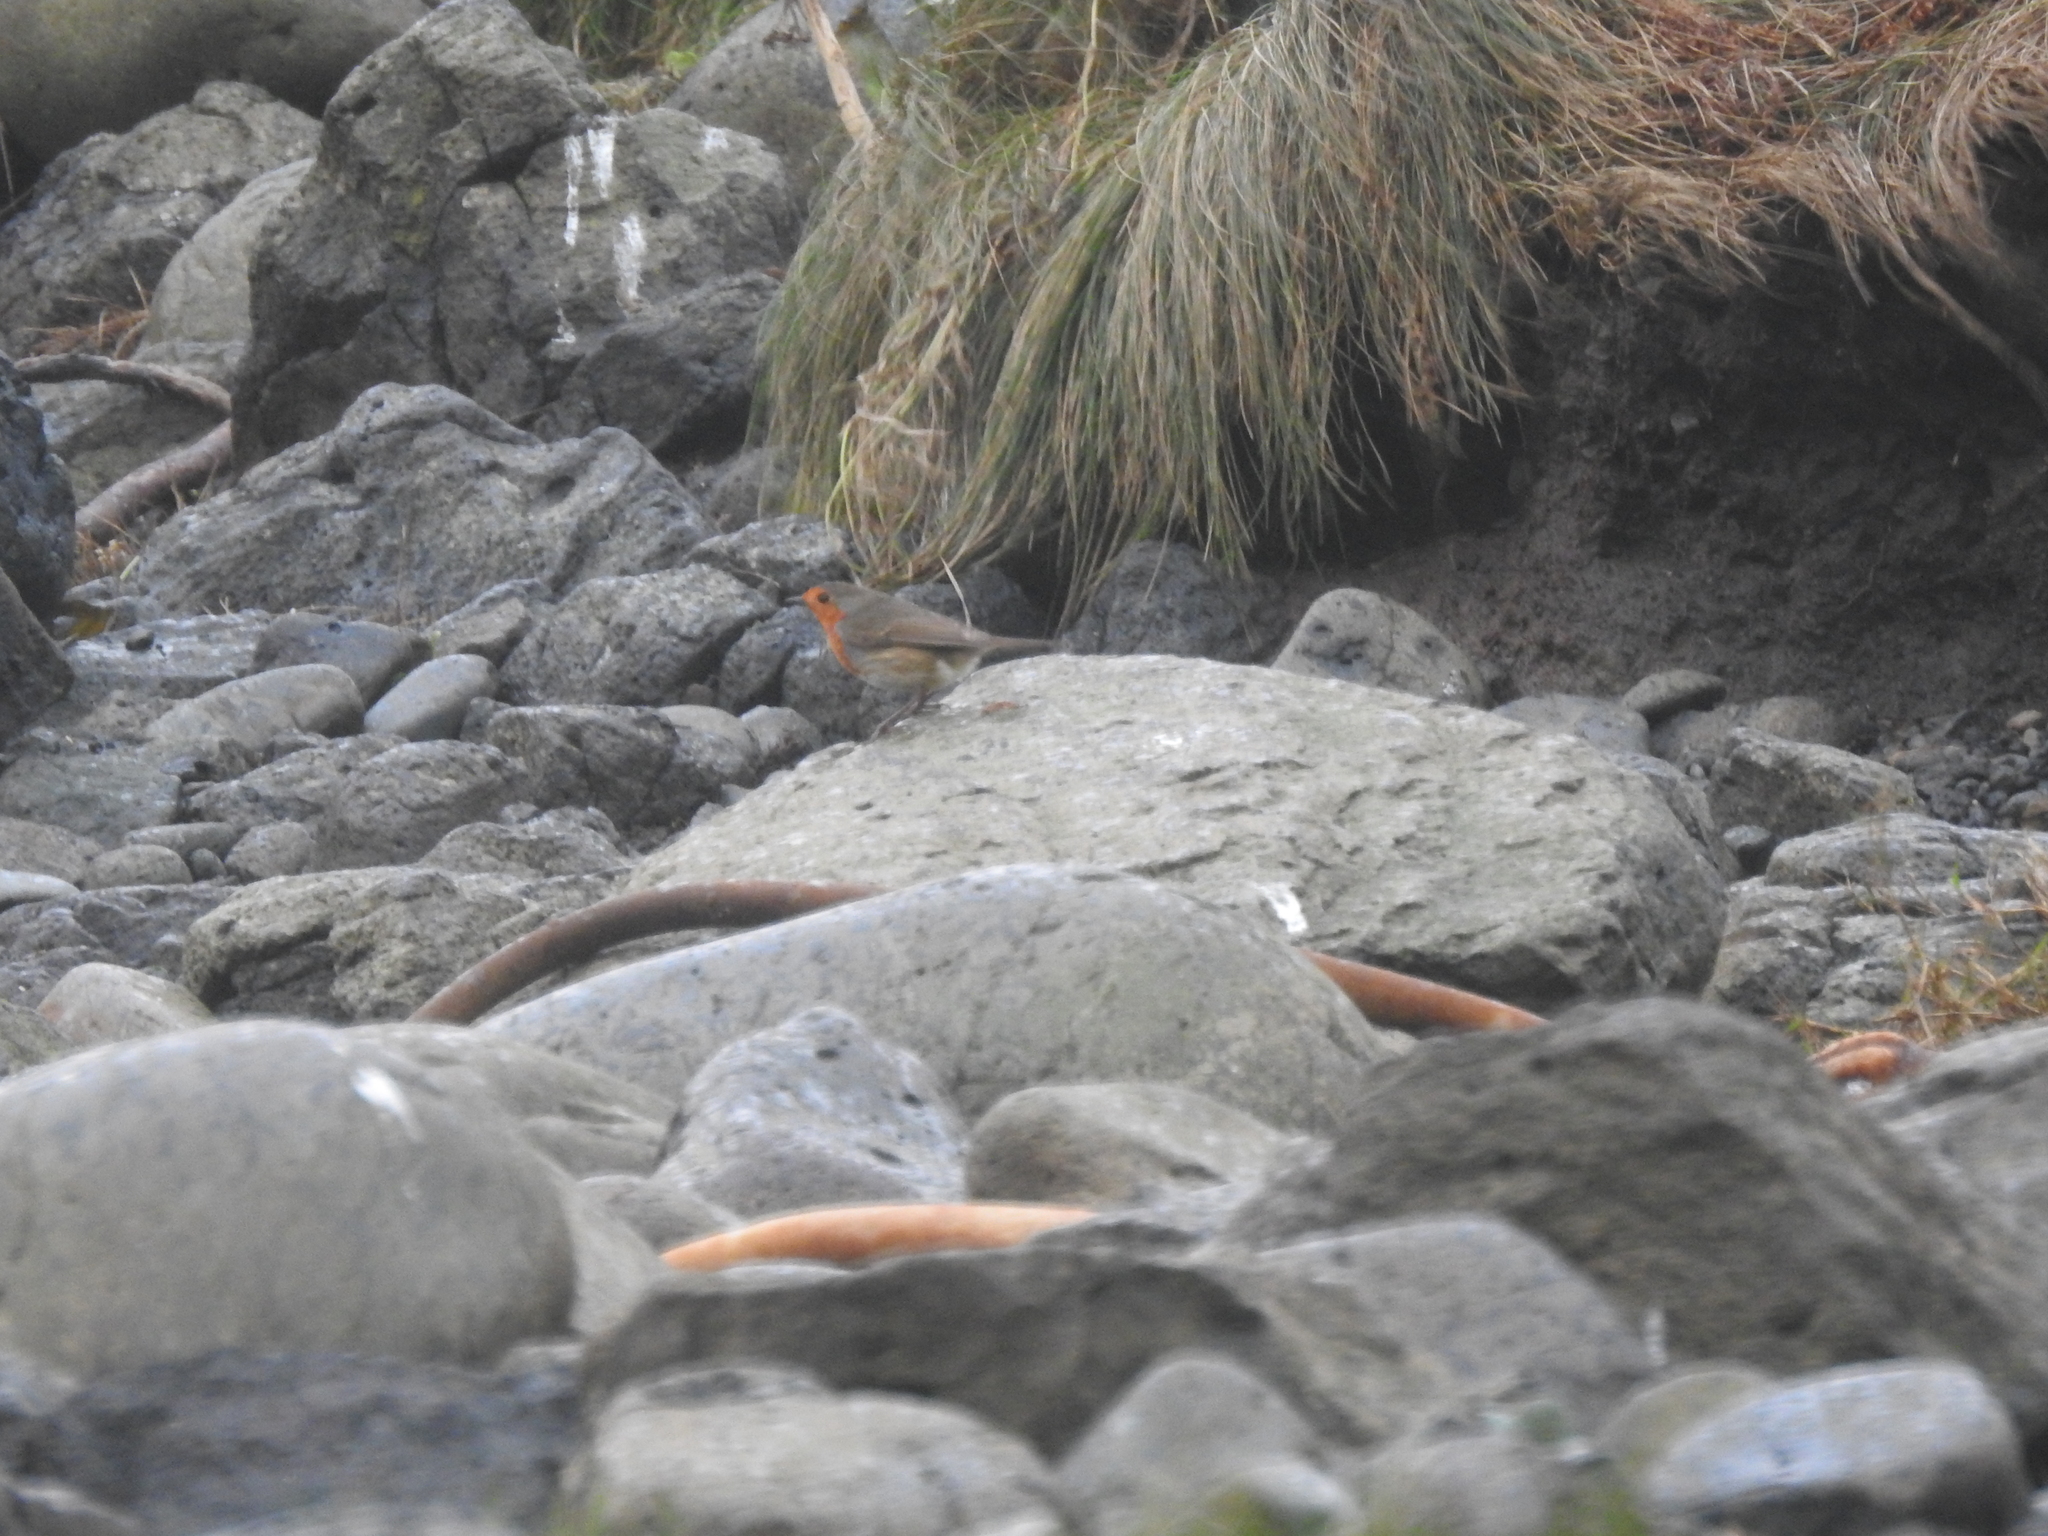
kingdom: Animalia
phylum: Chordata
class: Aves
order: Passeriformes
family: Muscicapidae
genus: Erithacus
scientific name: Erithacus rubecula
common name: European robin
